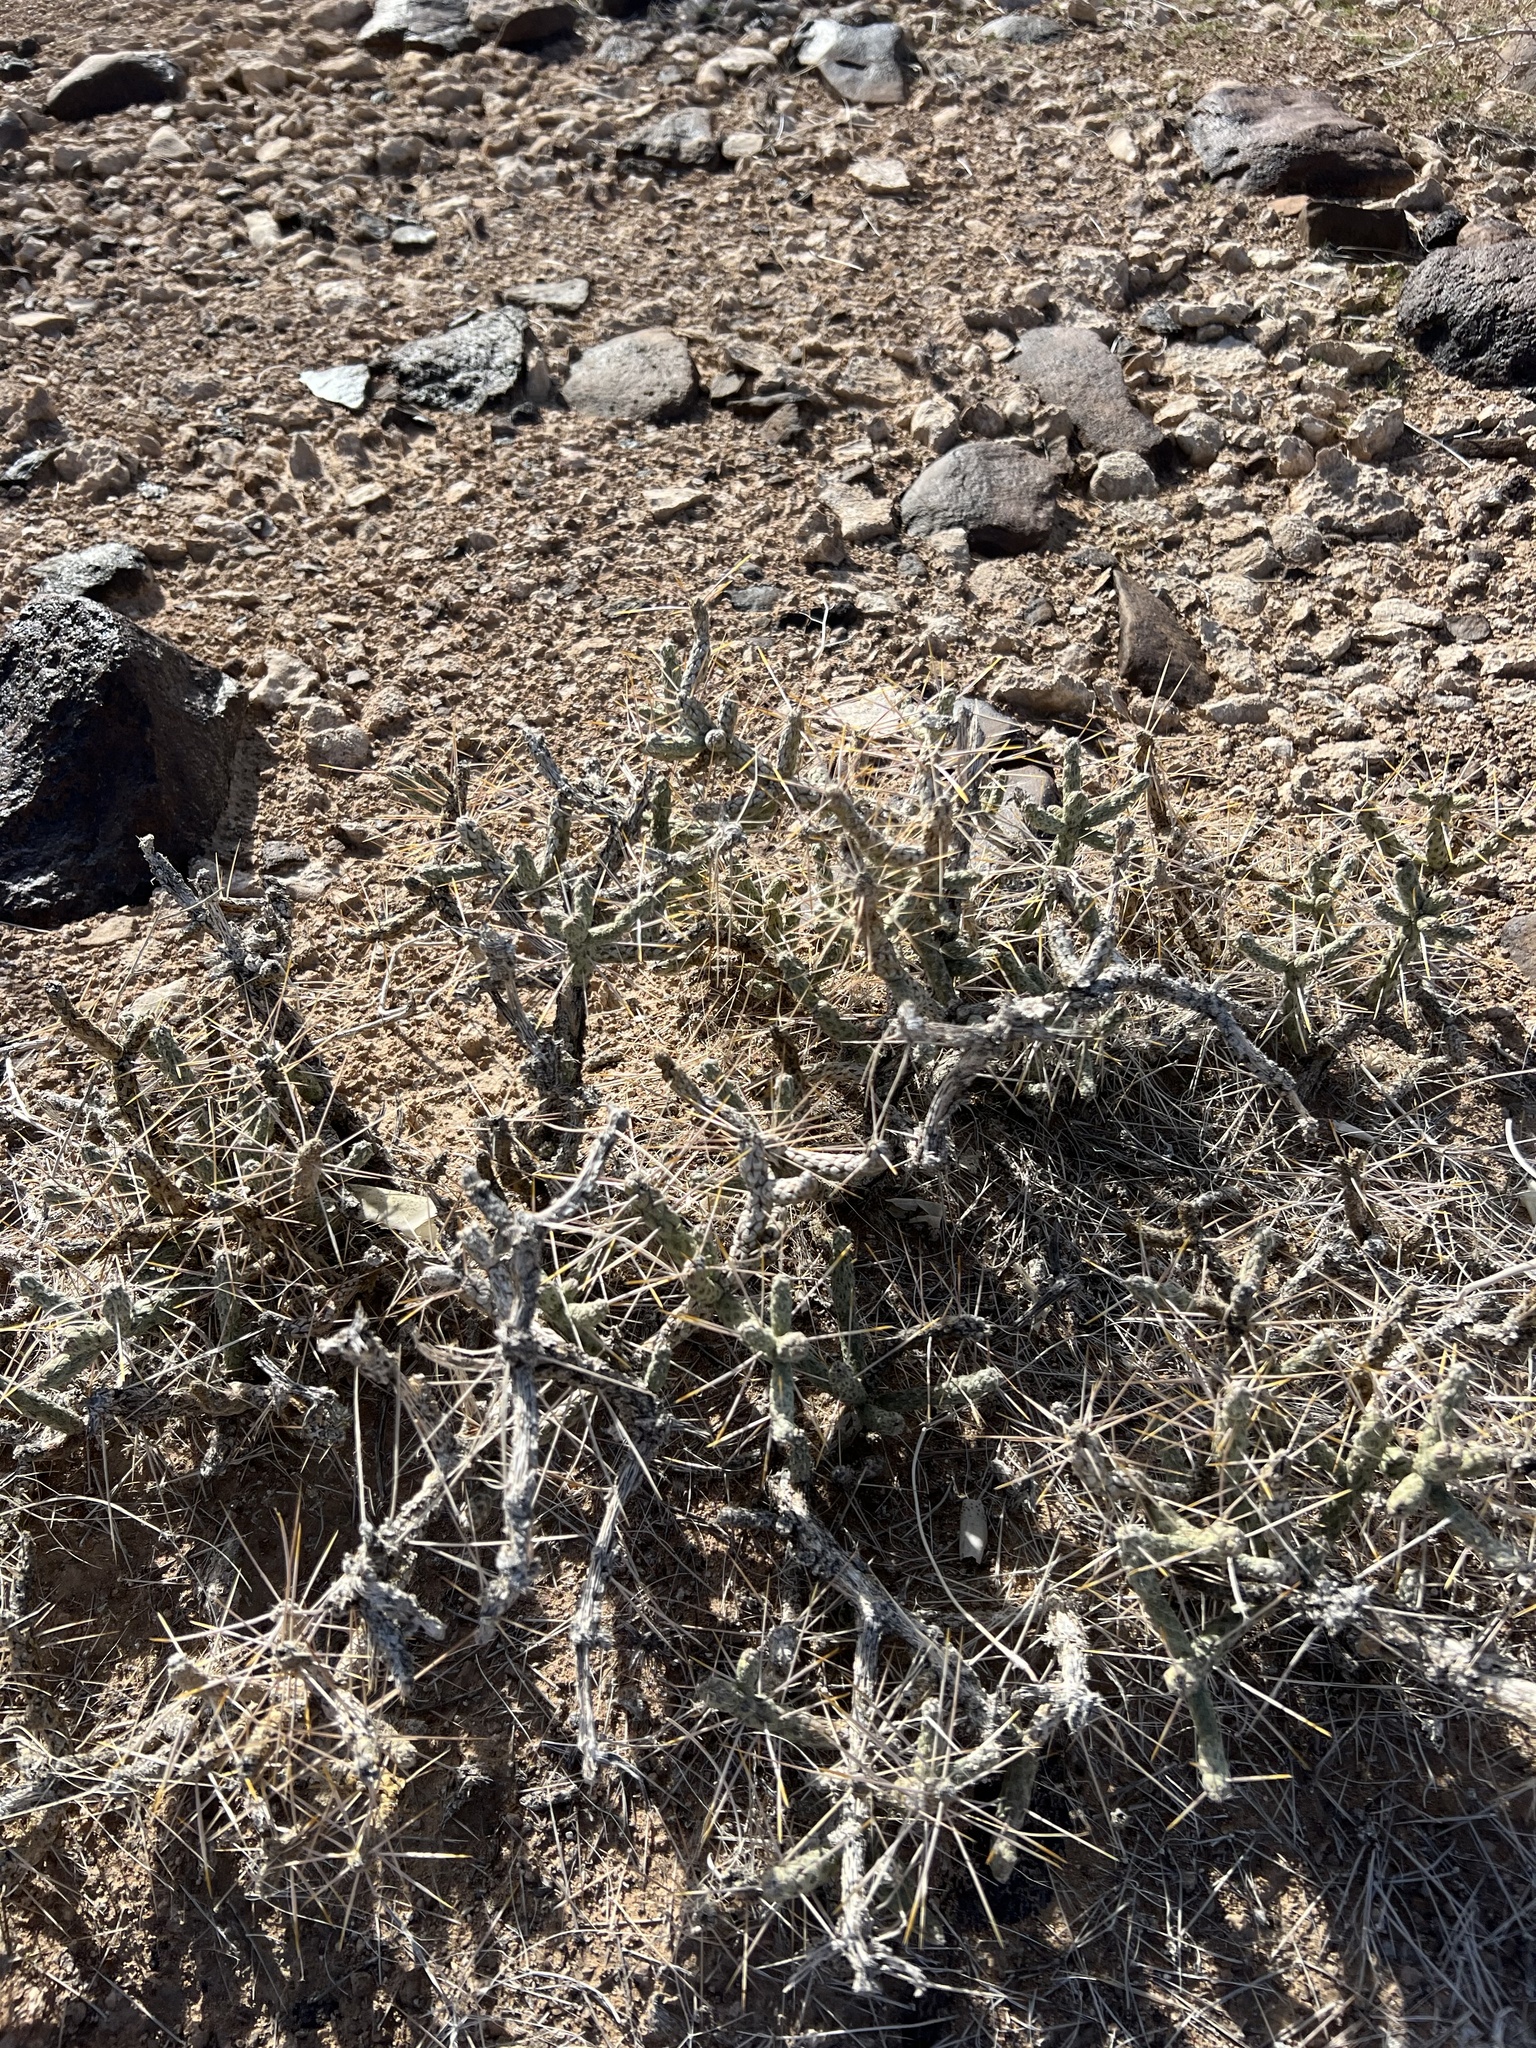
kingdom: Plantae
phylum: Tracheophyta
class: Magnoliopsida
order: Caryophyllales
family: Cactaceae
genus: Cylindropuntia
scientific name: Cylindropuntia ramosissima
